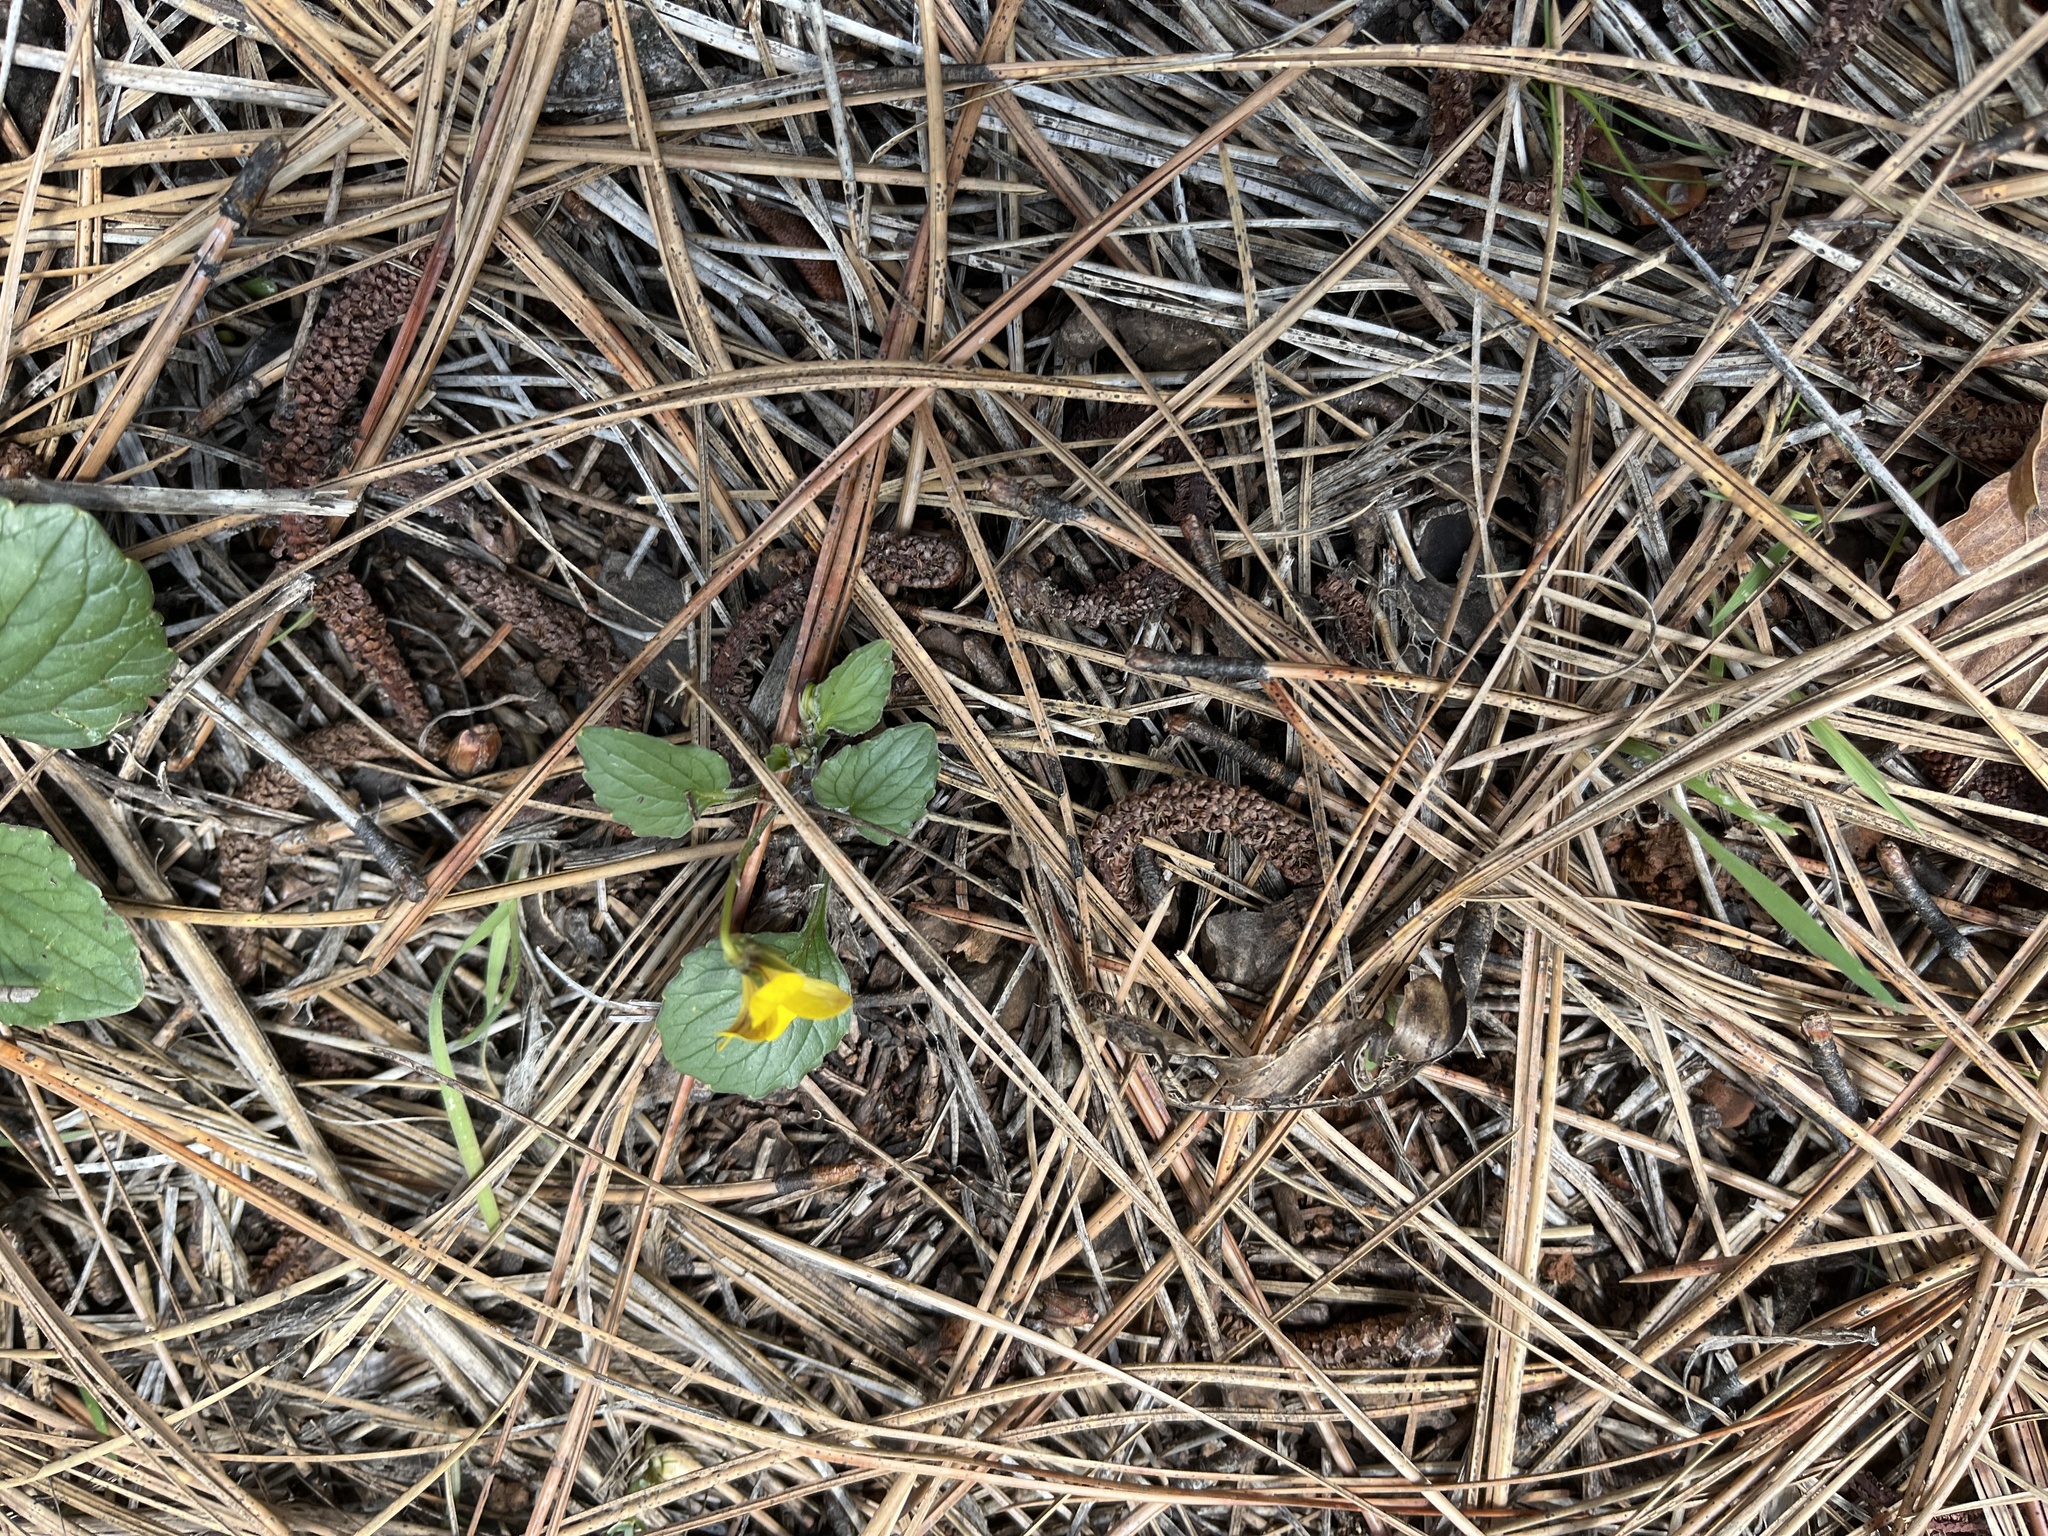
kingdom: Plantae
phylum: Tracheophyta
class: Magnoliopsida
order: Malpighiales
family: Violaceae
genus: Viola
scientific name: Viola purpurea
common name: Pine violet
